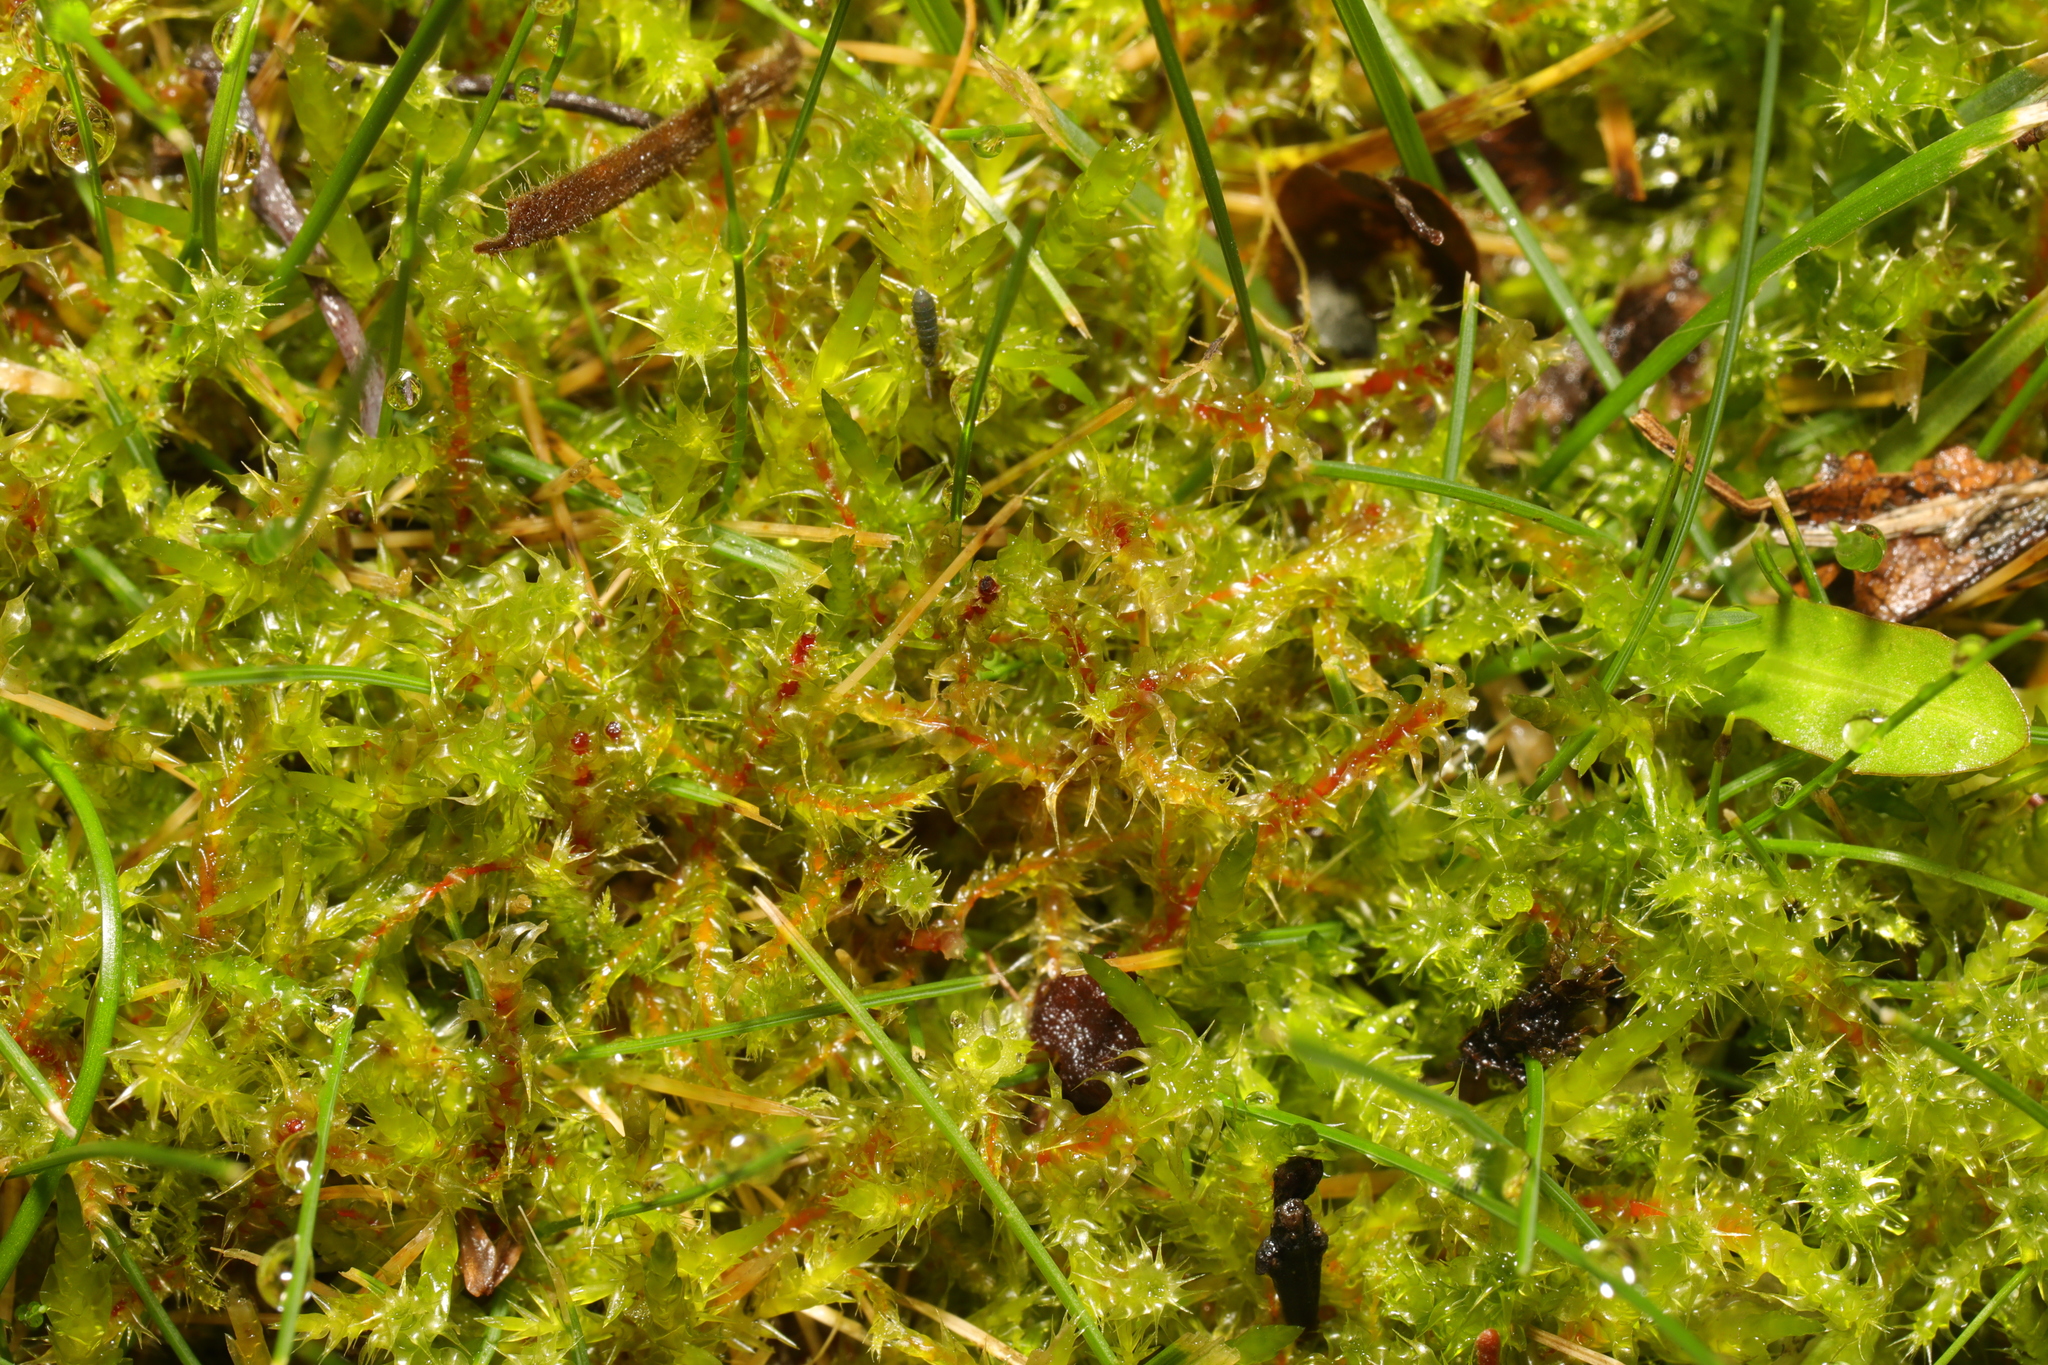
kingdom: Plantae
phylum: Bryophyta
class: Bryopsida
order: Hypnales
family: Hylocomiaceae
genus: Rhytidiadelphus
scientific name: Rhytidiadelphus squarrosus
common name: Springy turf-moss
